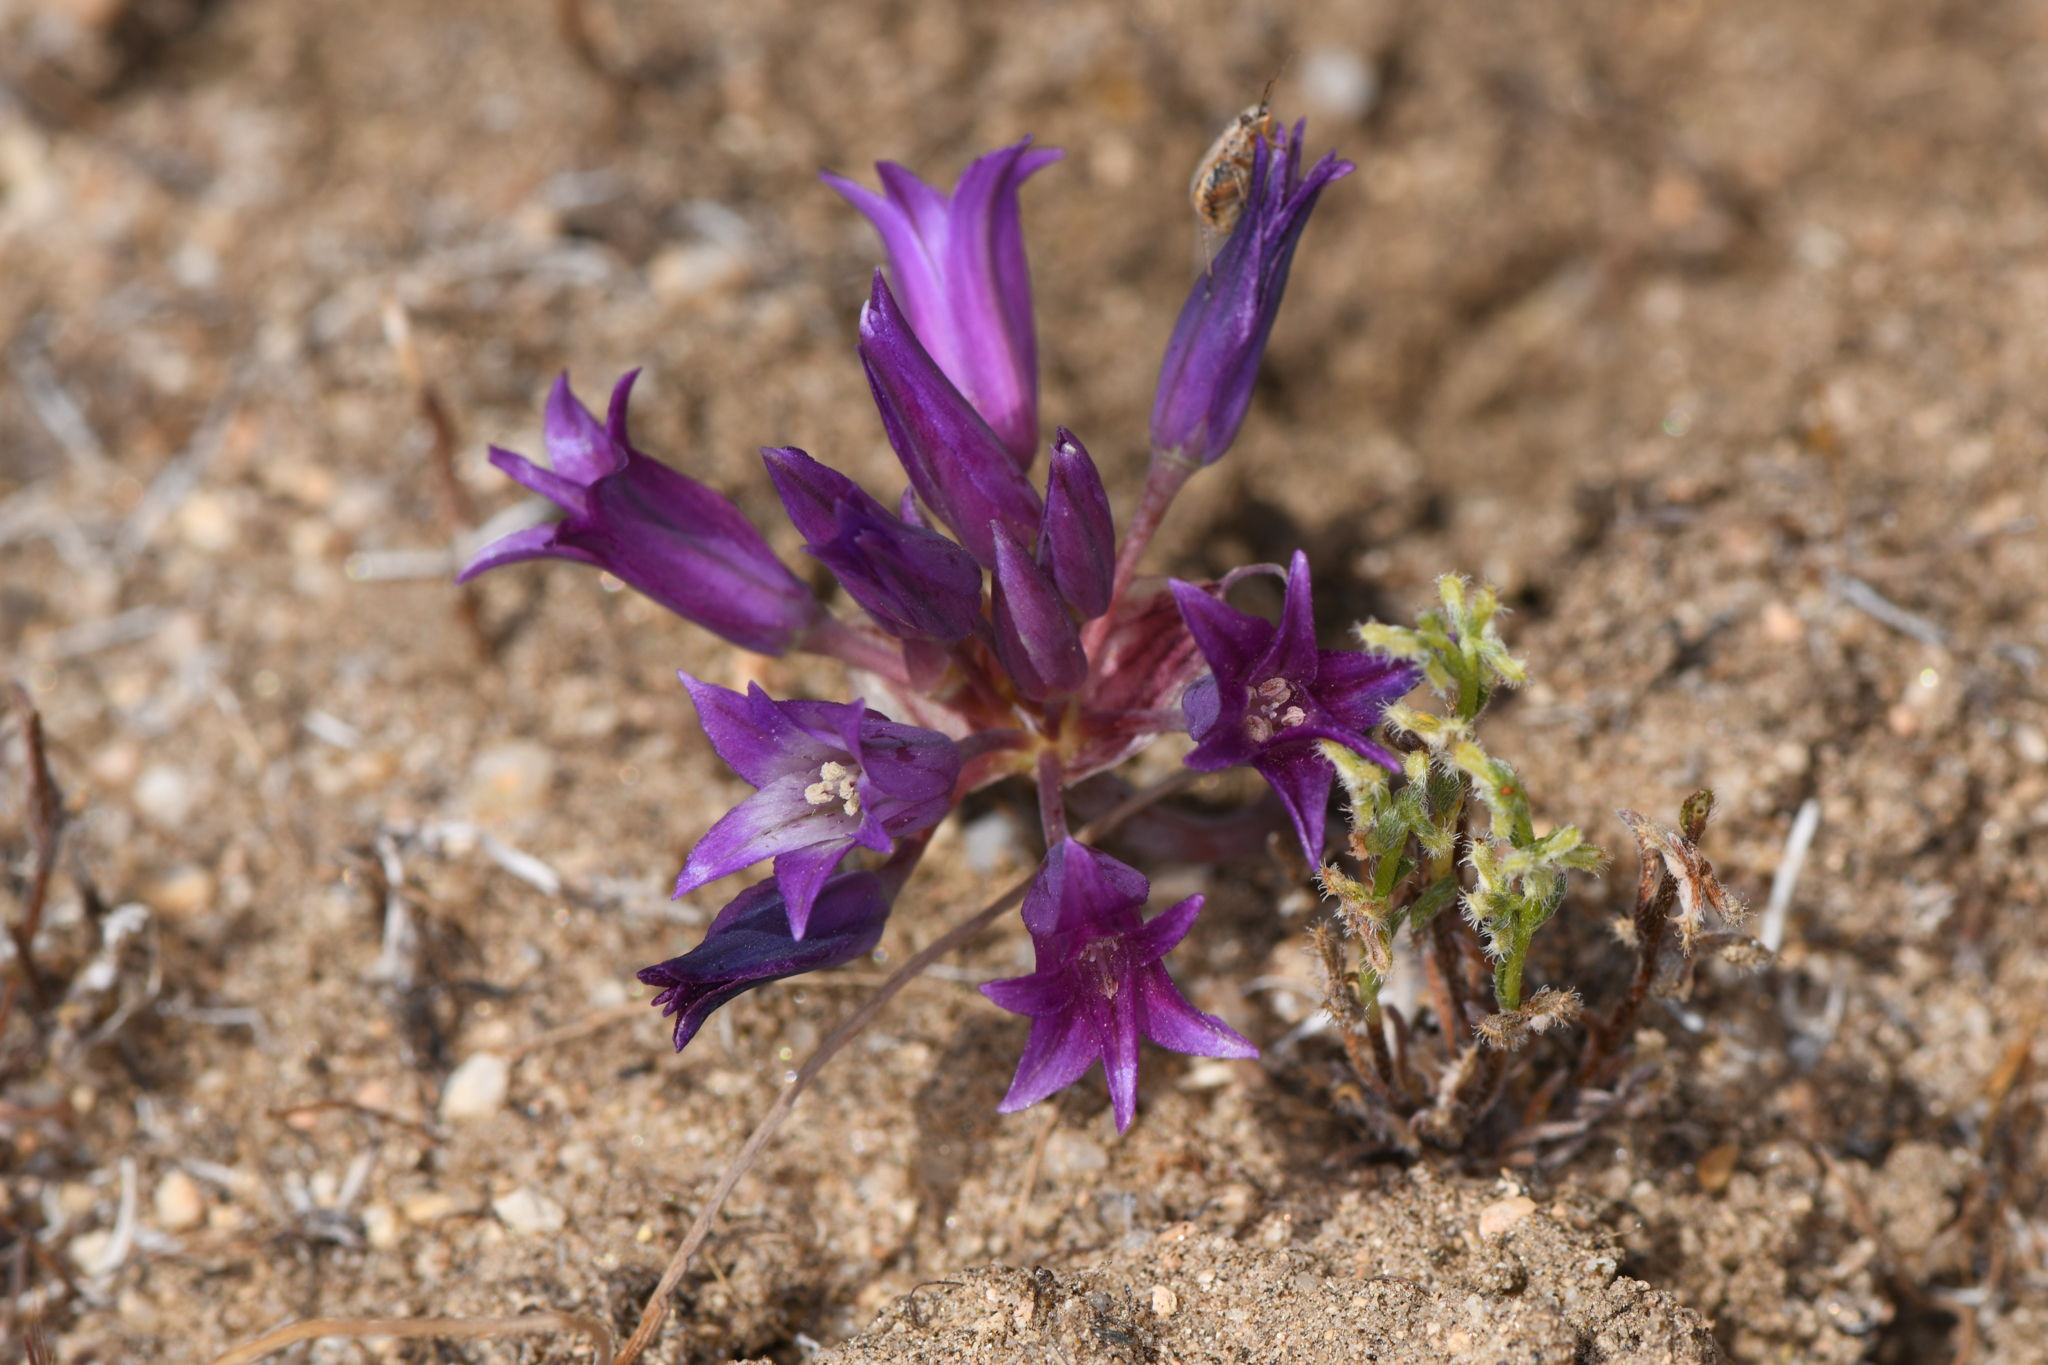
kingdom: Plantae
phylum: Tracheophyta
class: Liliopsida
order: Asparagales
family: Amaryllidaceae
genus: Allium
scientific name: Allium fimbriatum
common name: Fringed onion
